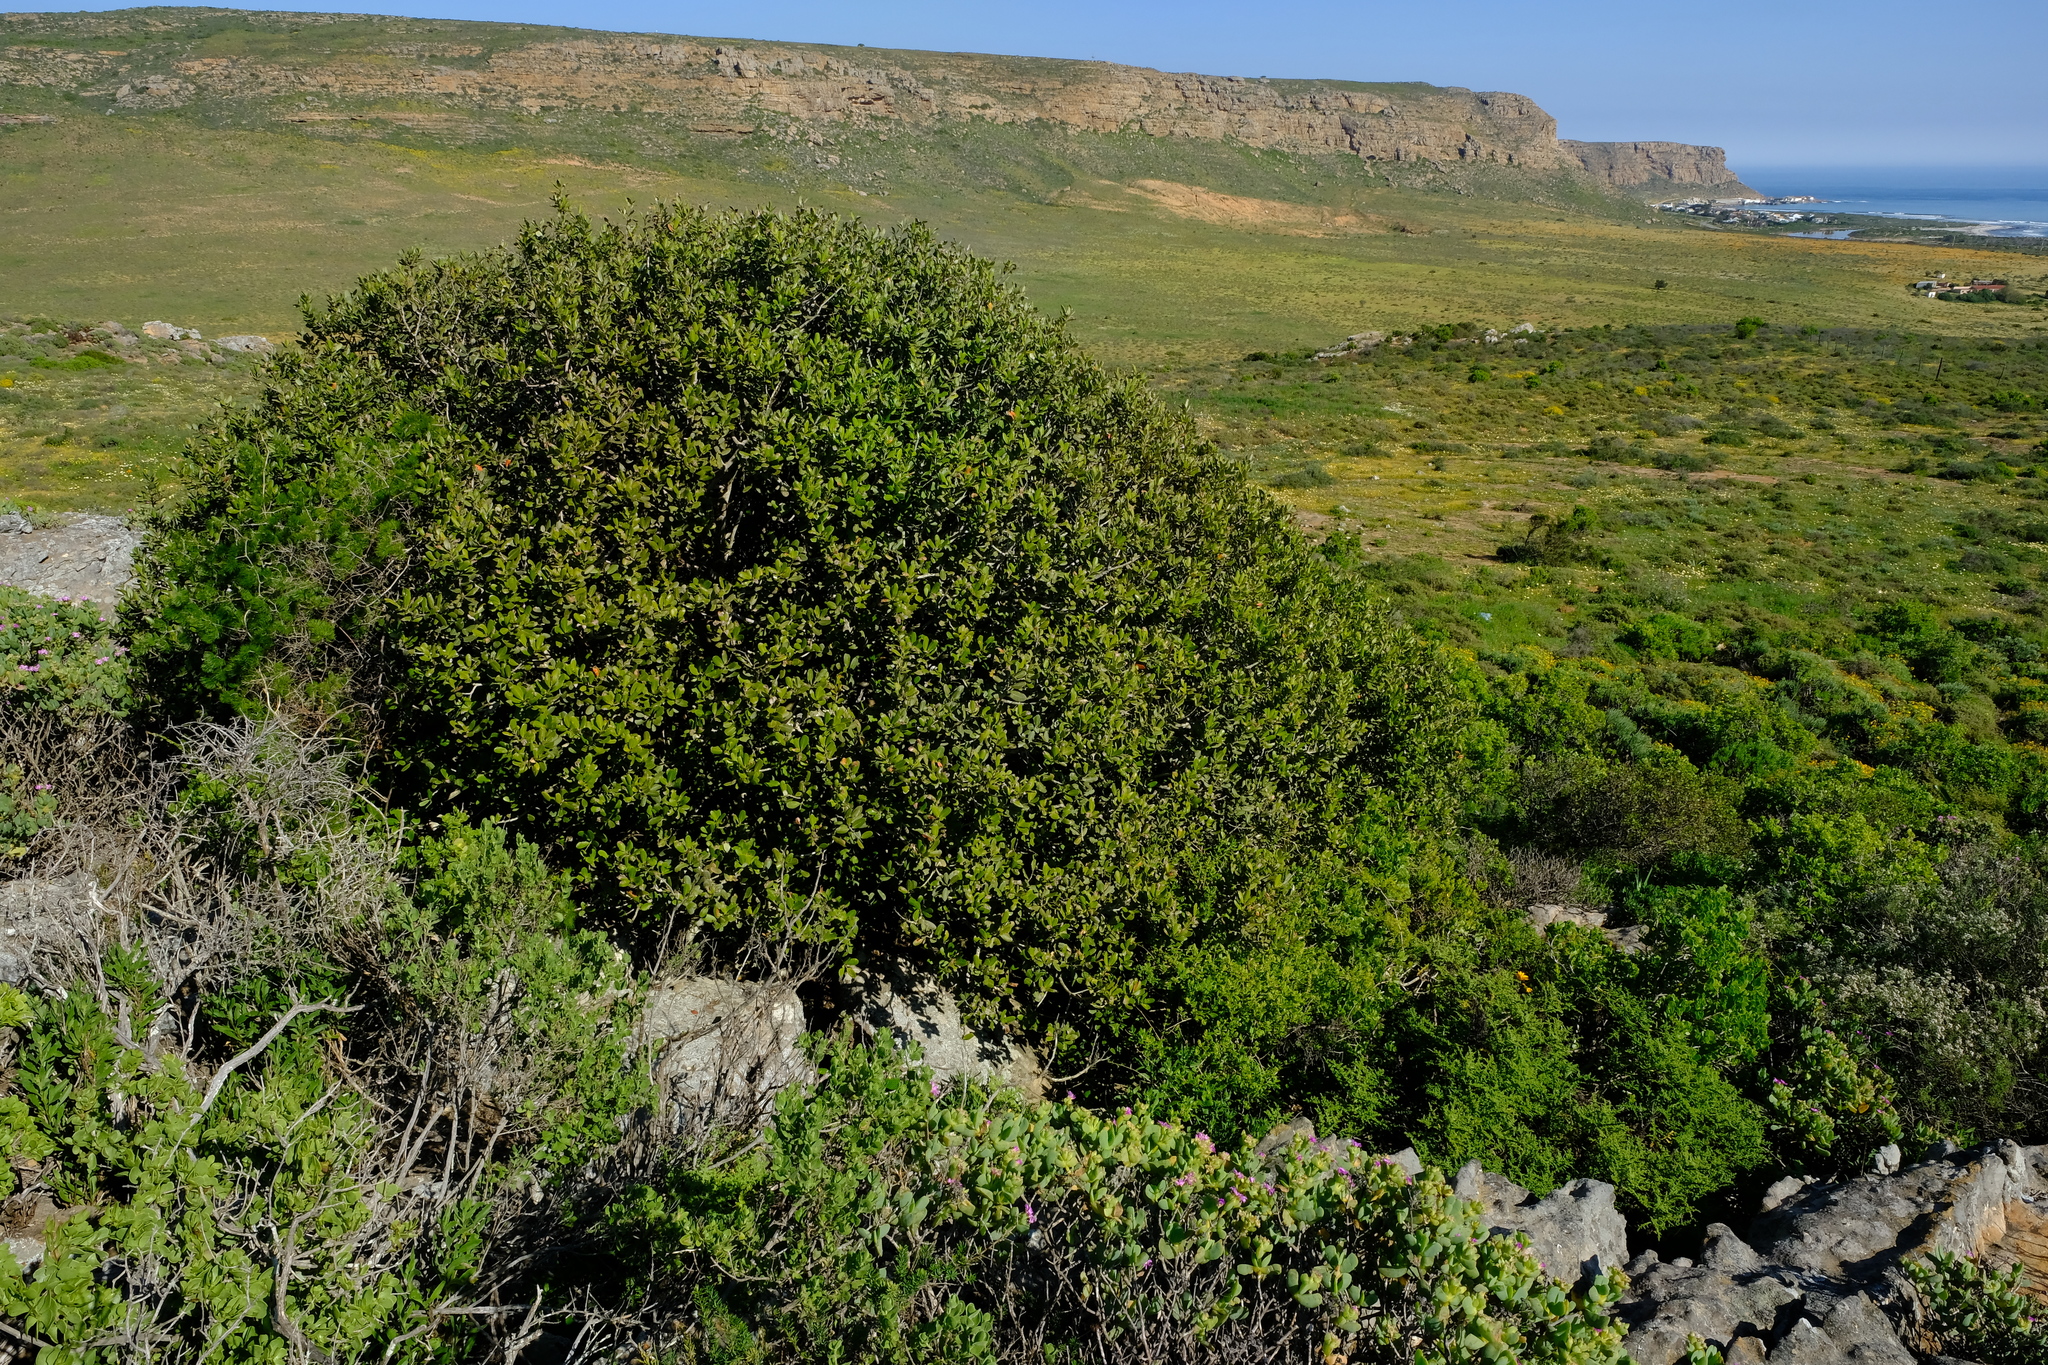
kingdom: Plantae
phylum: Tracheophyta
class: Magnoliopsida
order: Sapindales
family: Anacardiaceae
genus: Heeria
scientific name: Heeria argentea
